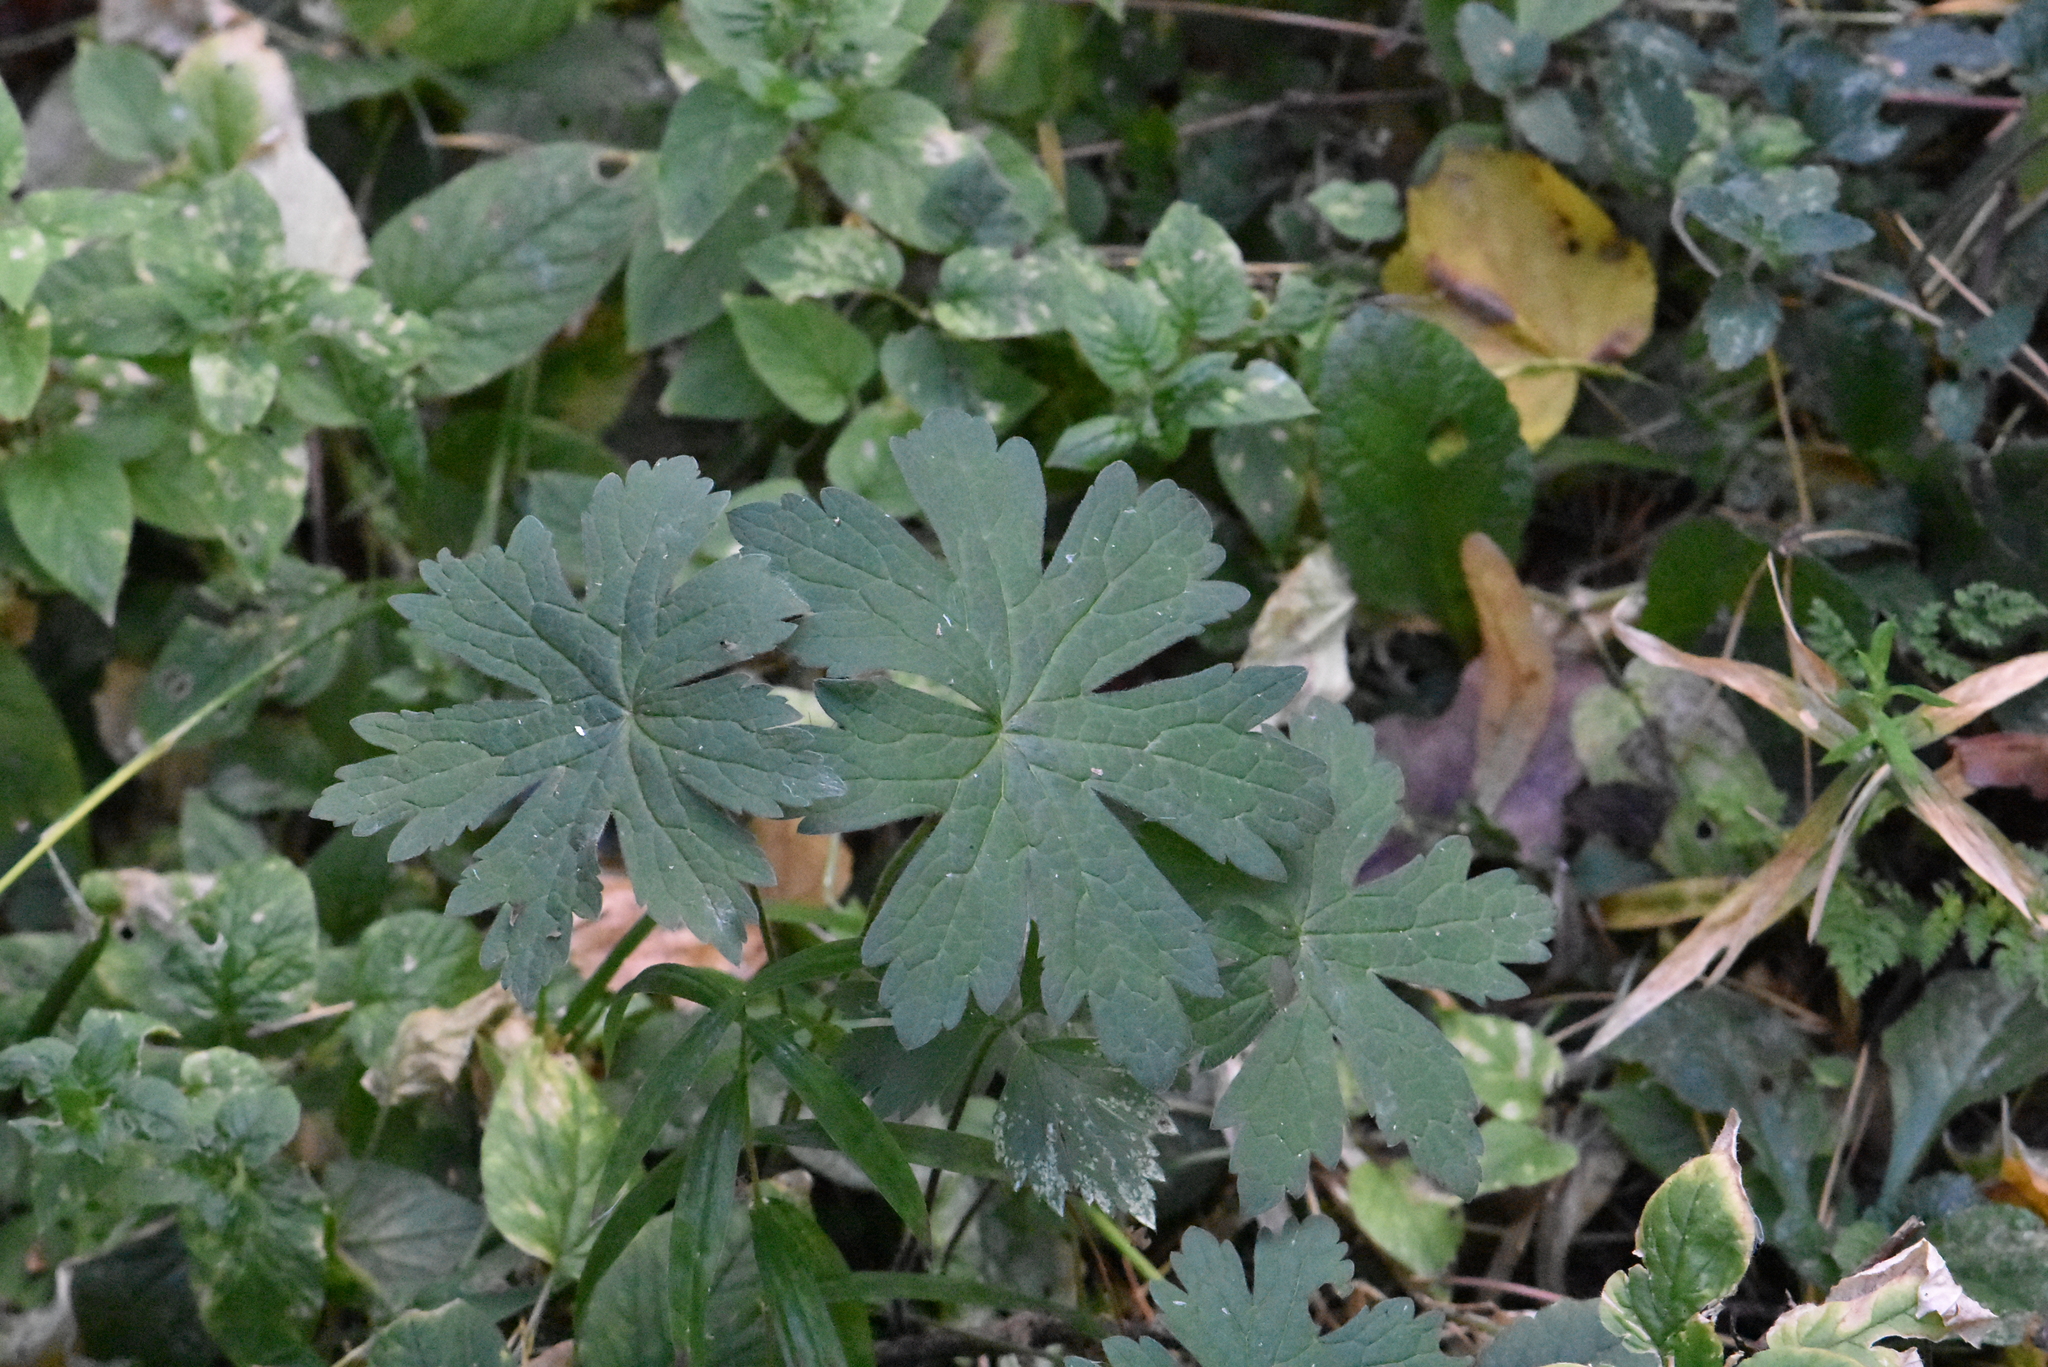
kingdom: Plantae
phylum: Tracheophyta
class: Magnoliopsida
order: Geraniales
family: Geraniaceae
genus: Geranium
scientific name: Geranium palustre
